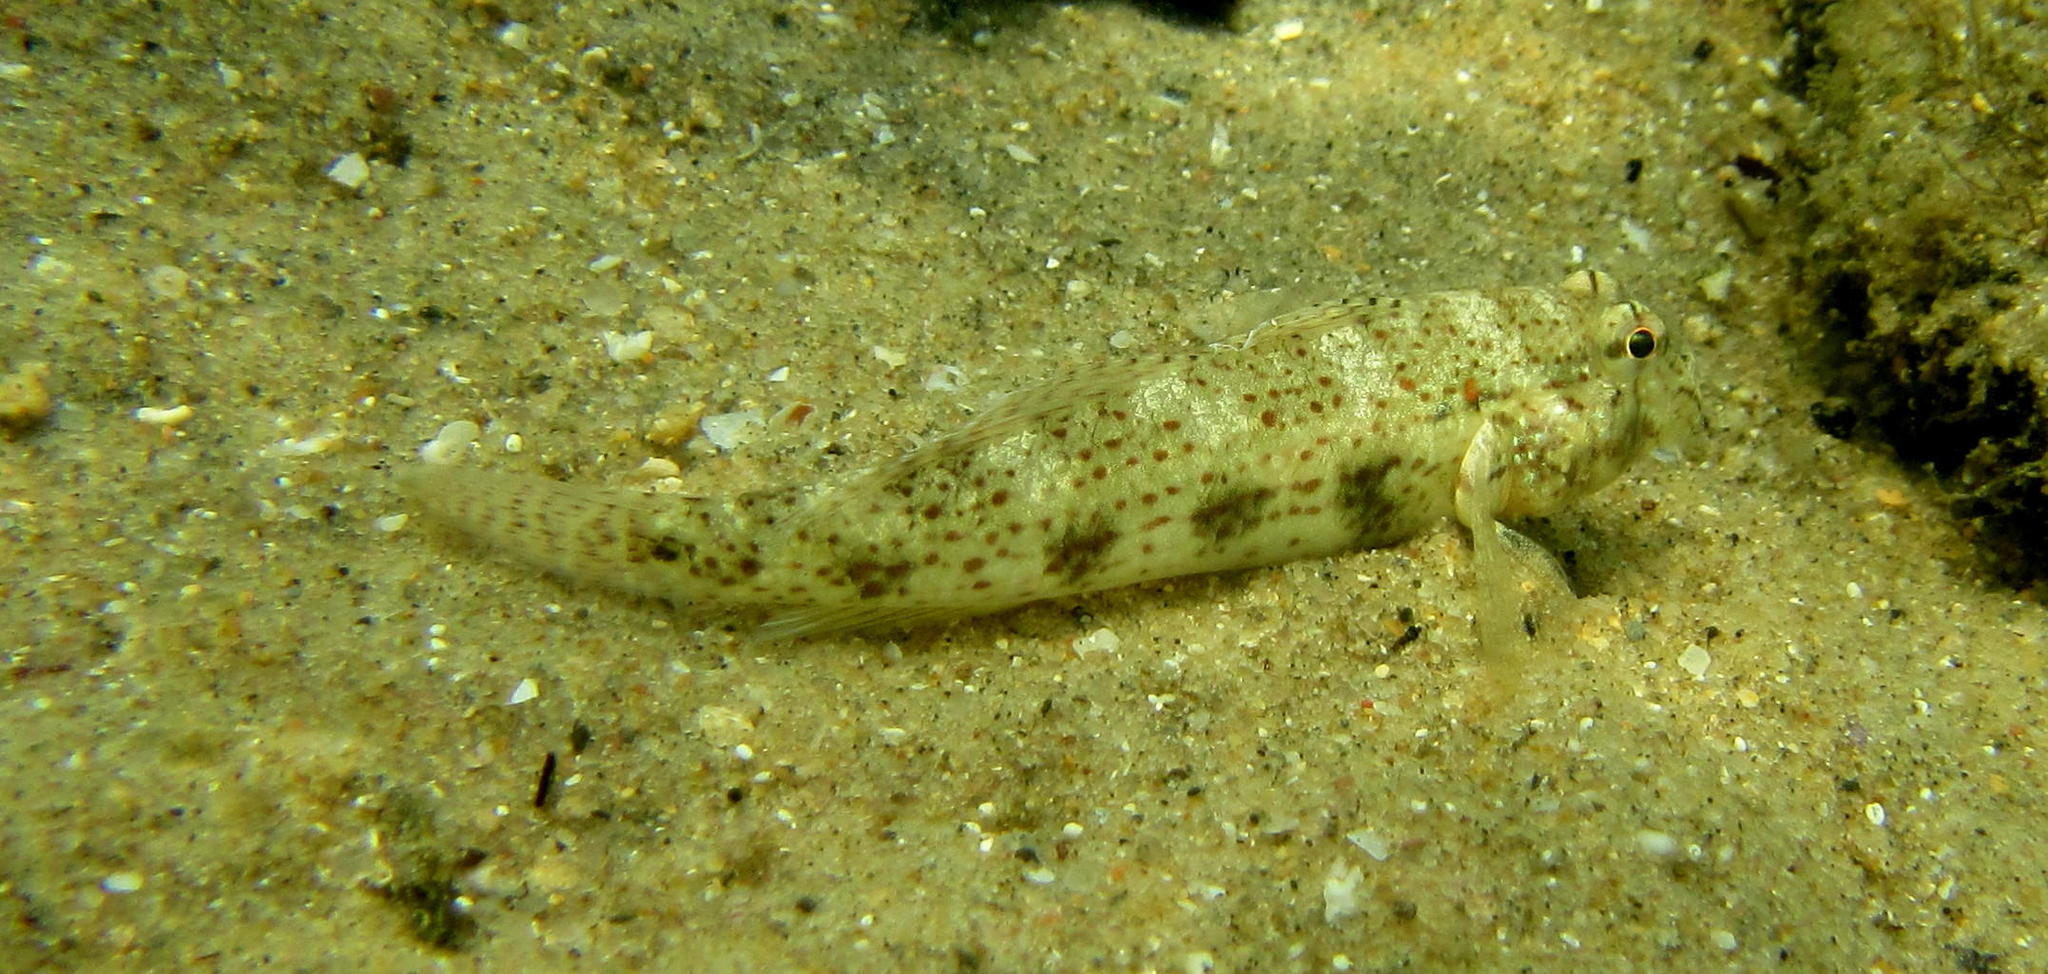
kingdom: Animalia
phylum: Chordata
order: Perciformes
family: Gobiidae
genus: Gnatholepis
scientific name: Gnatholepis anjerensis
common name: Anjer eye-bar goby
